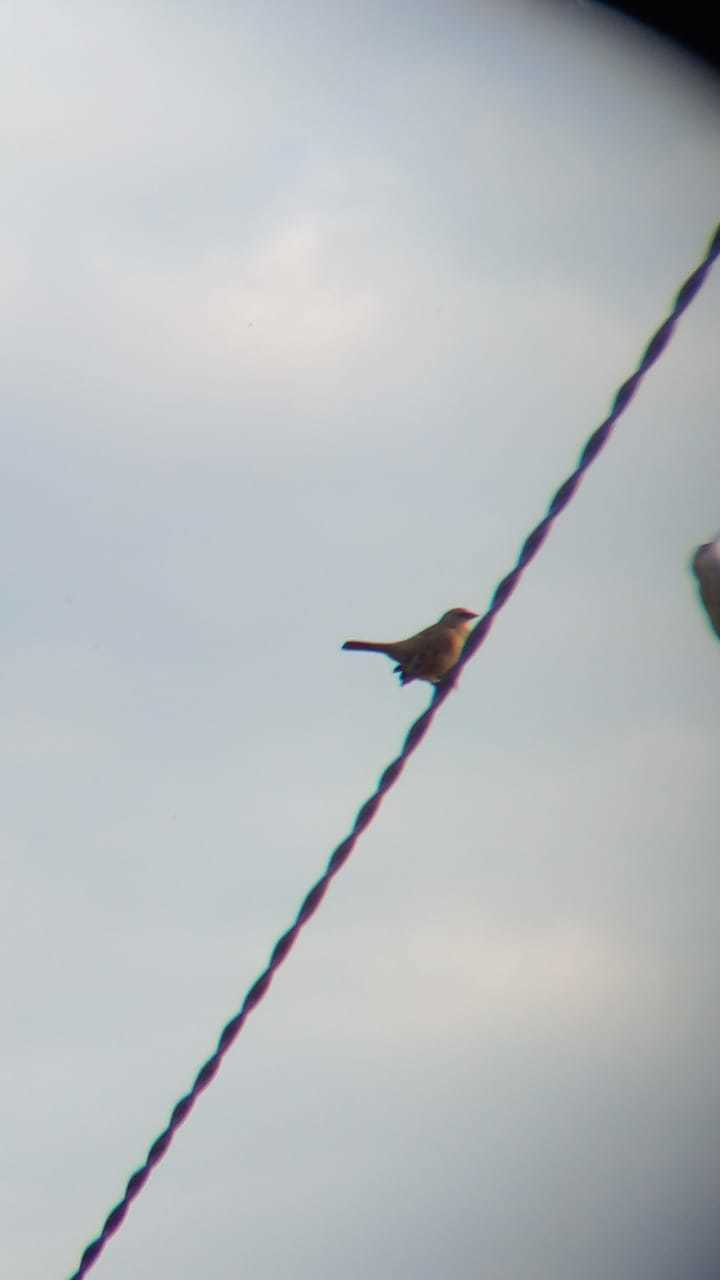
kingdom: Animalia
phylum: Chordata
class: Aves
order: Passeriformes
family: Icteridae
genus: Agelaioides
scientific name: Agelaioides badius
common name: Baywing
